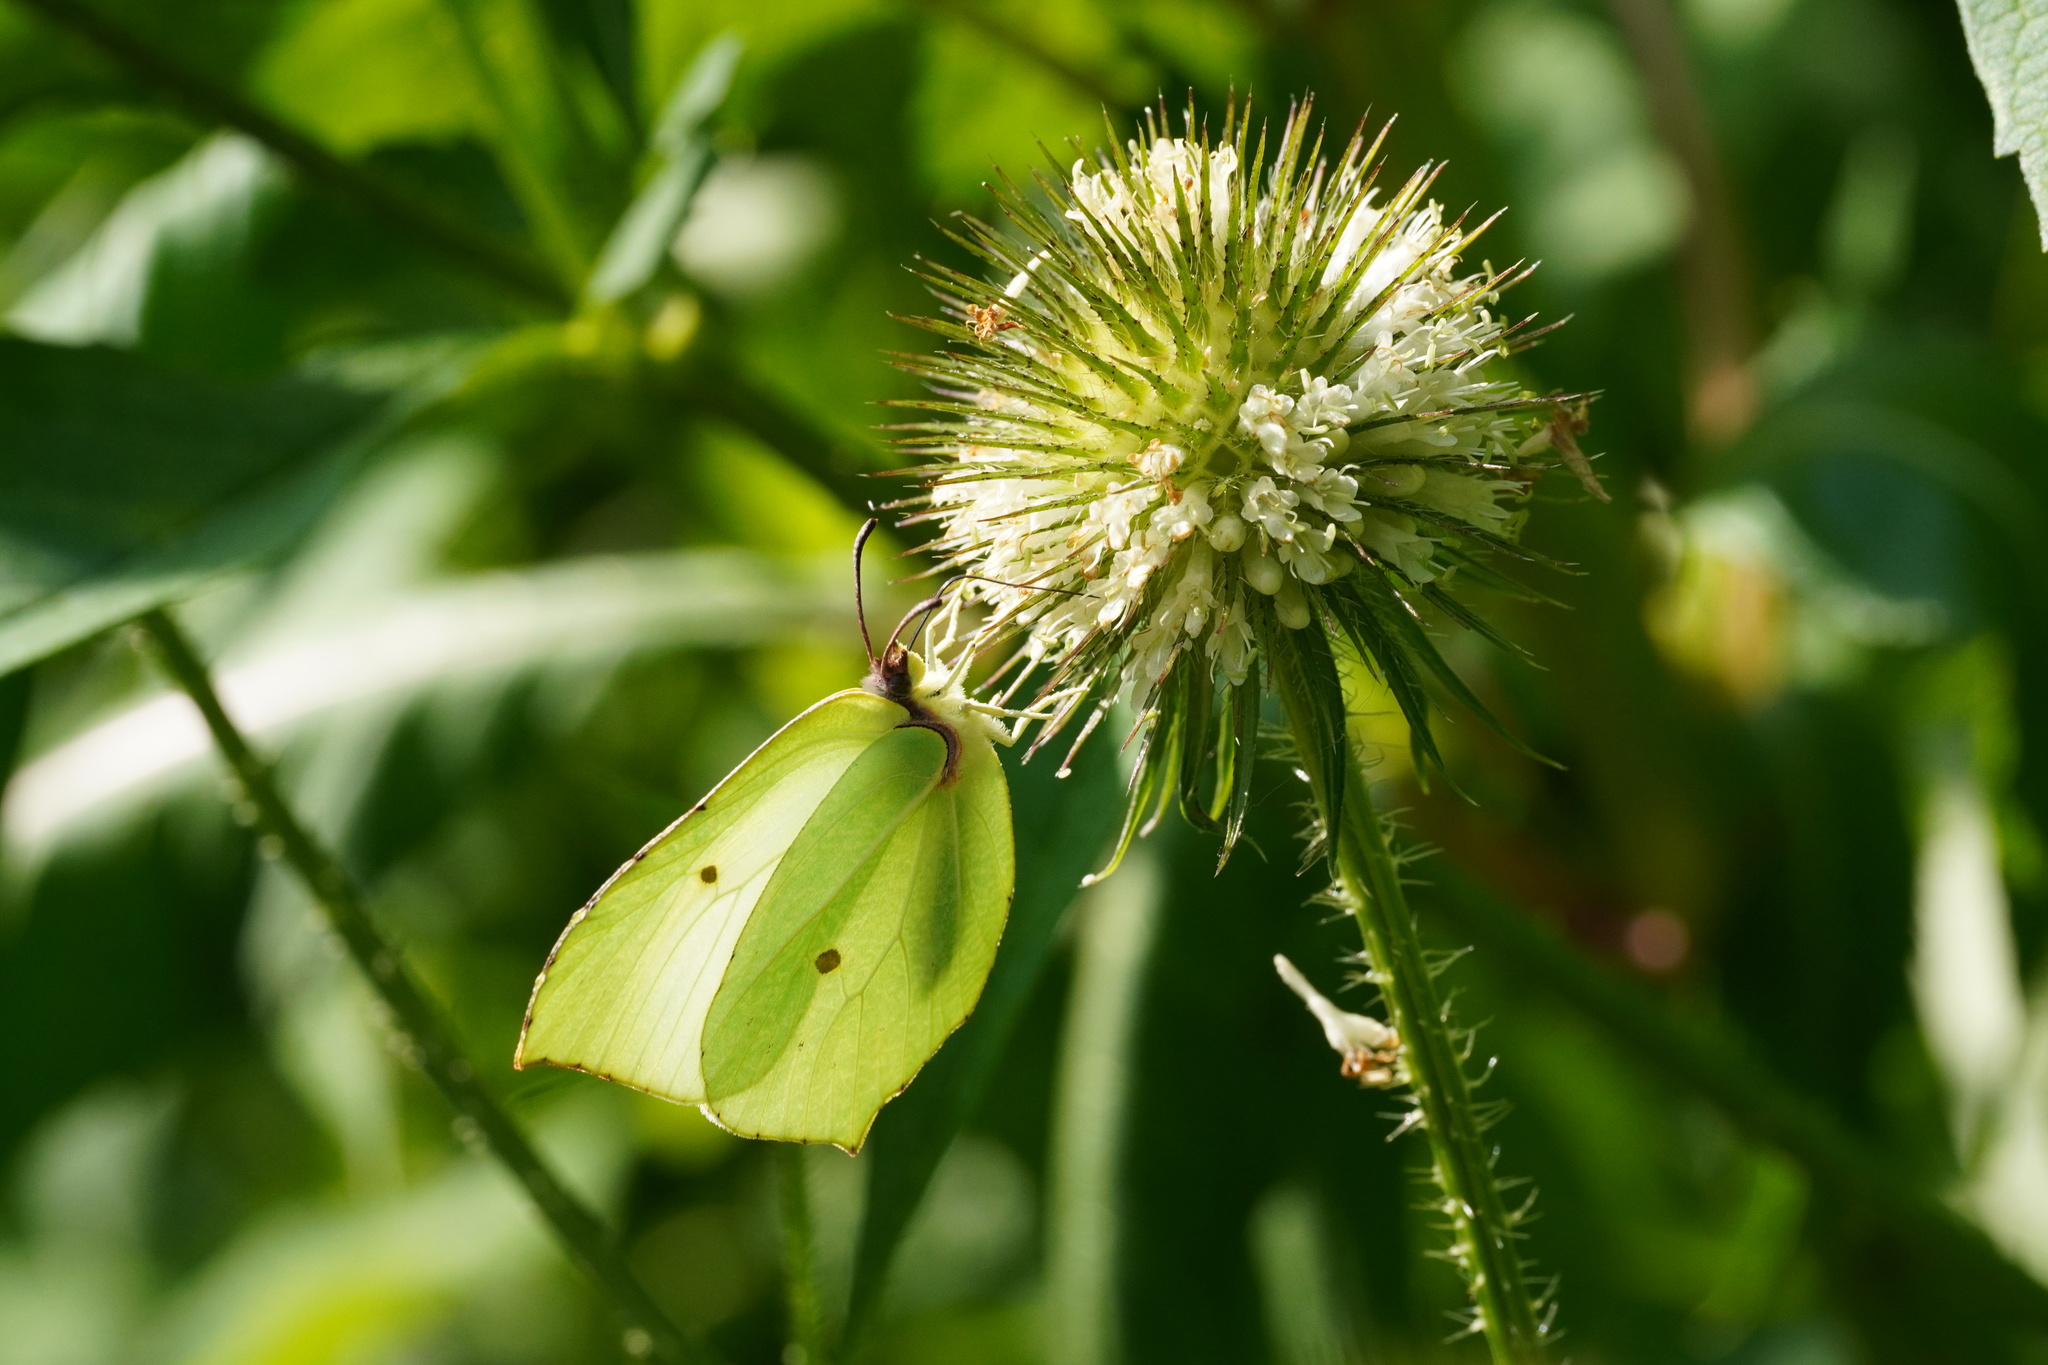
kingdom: Animalia
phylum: Arthropoda
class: Insecta
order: Lepidoptera
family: Pieridae
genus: Gonepteryx
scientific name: Gonepteryx rhamni
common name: Brimstone
